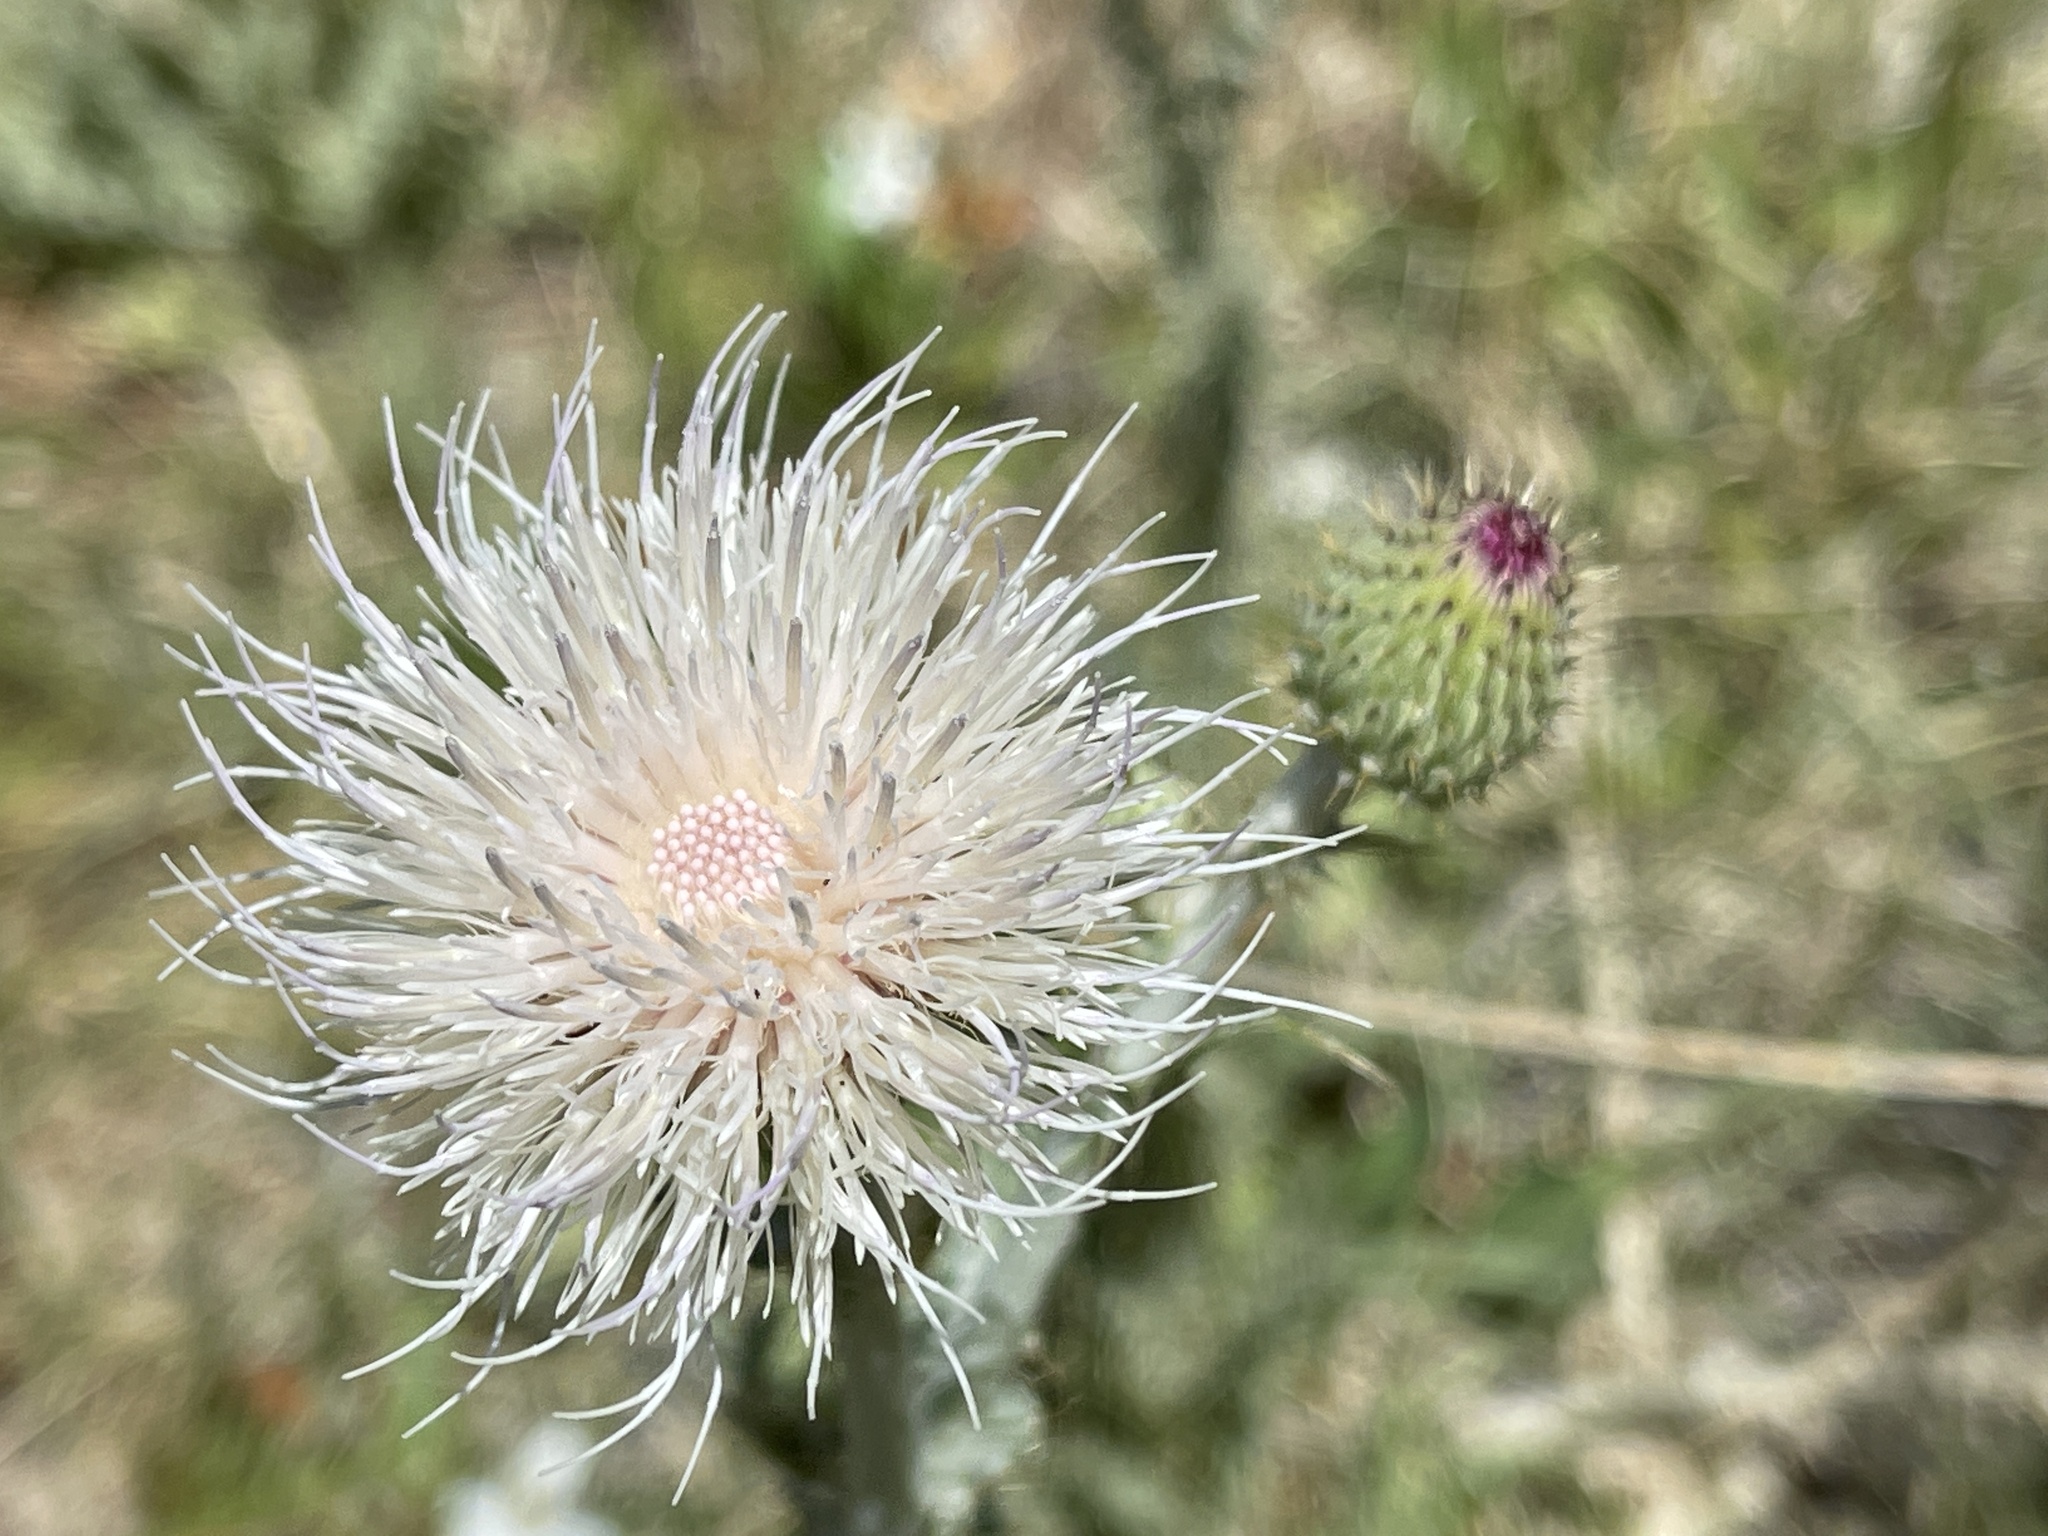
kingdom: Plantae
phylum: Tracheophyta
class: Magnoliopsida
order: Asterales
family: Asteraceae
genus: Cirsium
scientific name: Cirsium mohavense
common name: Mojave thistle
